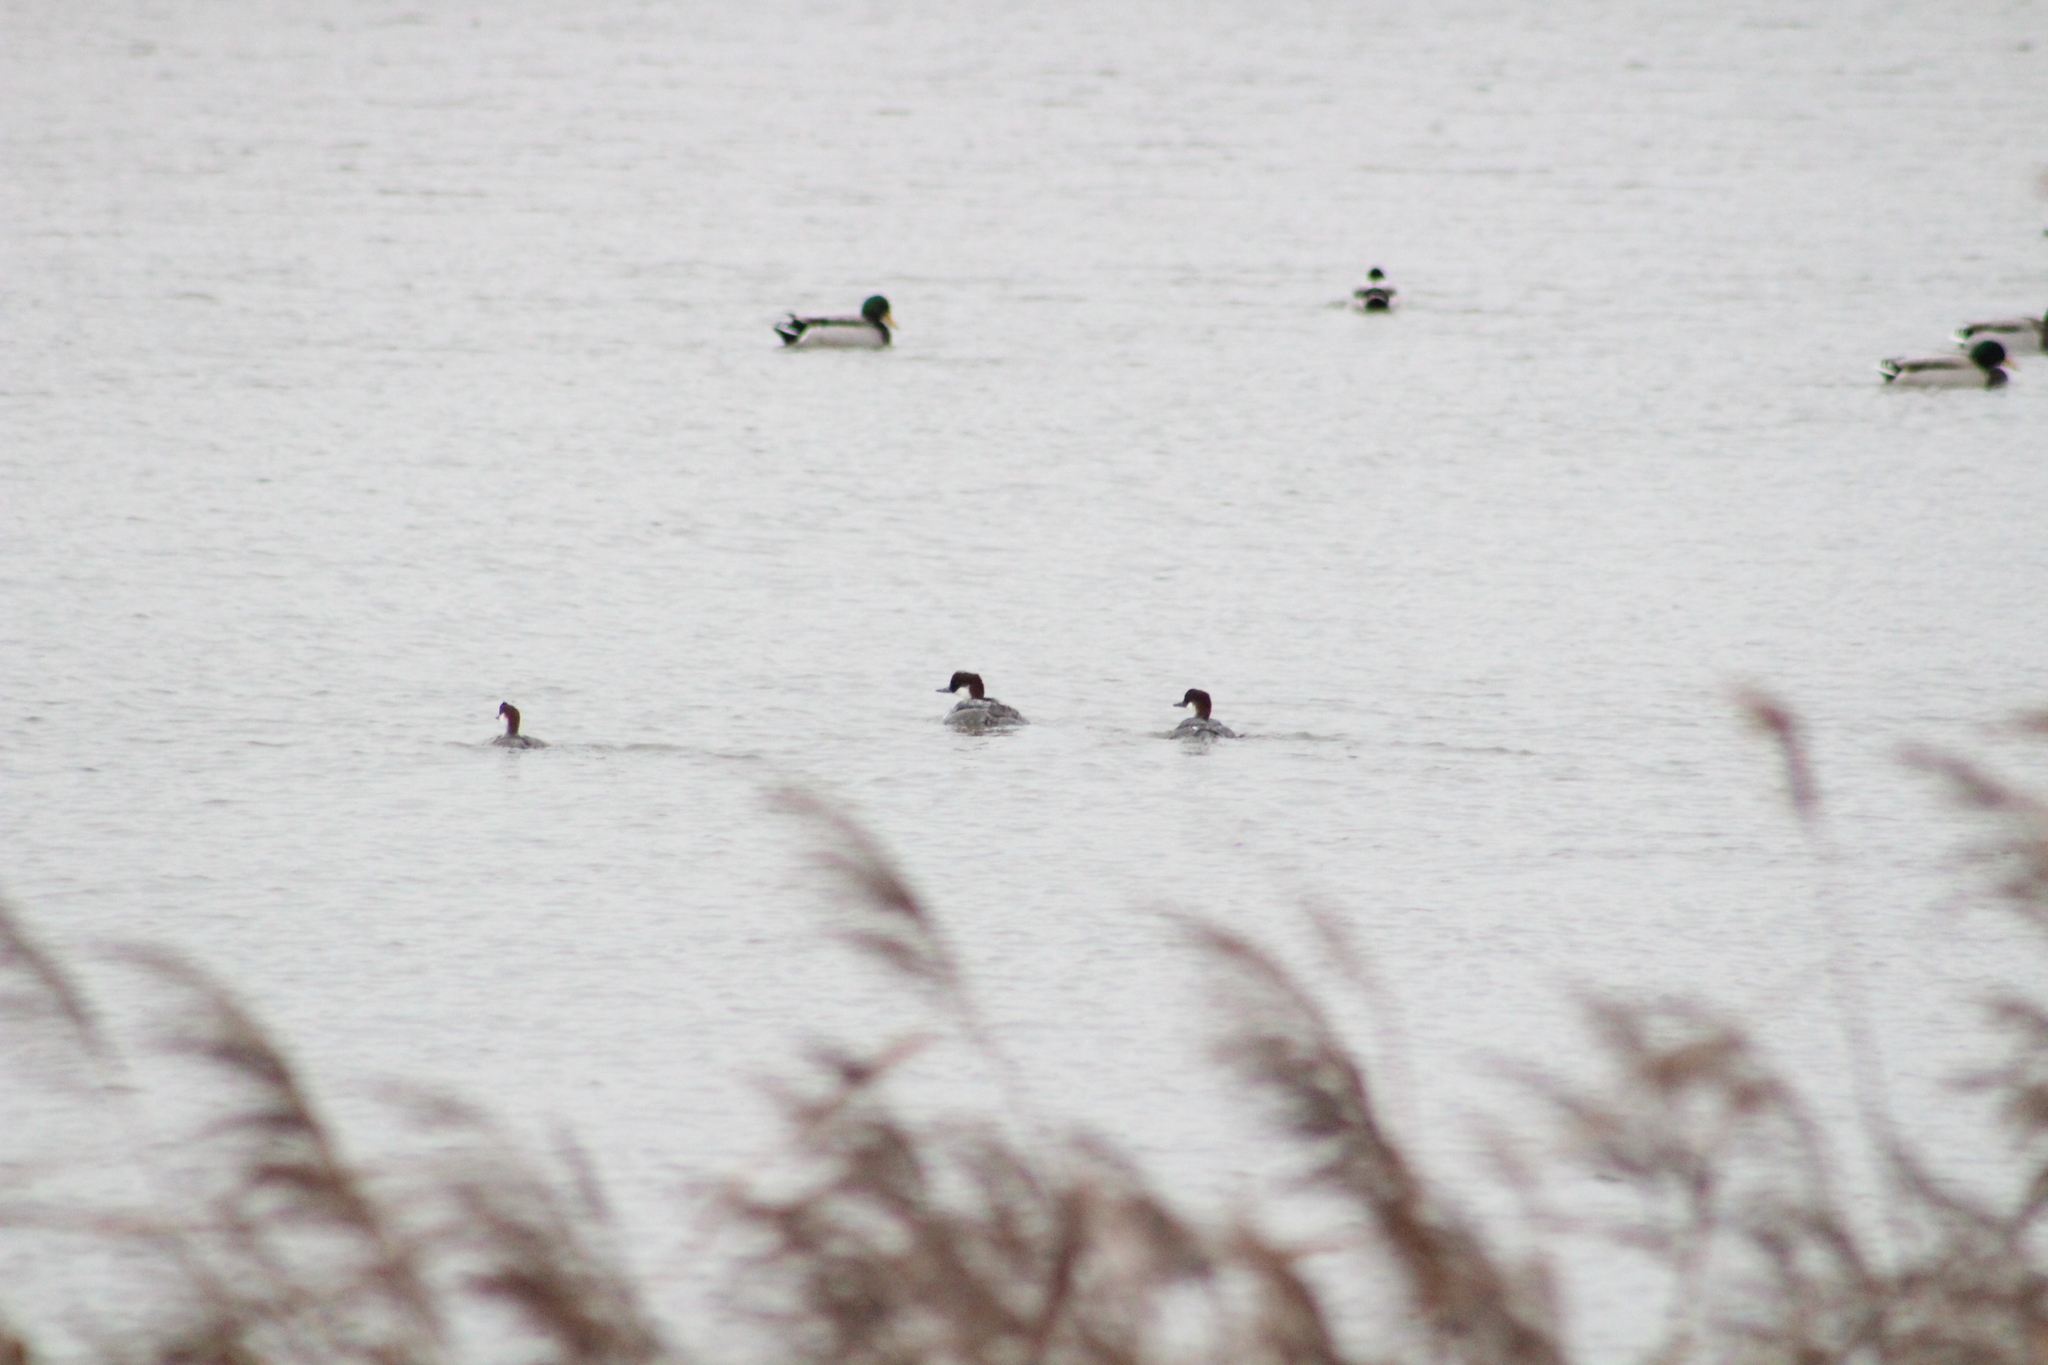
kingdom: Animalia
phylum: Chordata
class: Aves
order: Anseriformes
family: Anatidae
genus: Mergellus
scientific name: Mergellus albellus
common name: Smew
